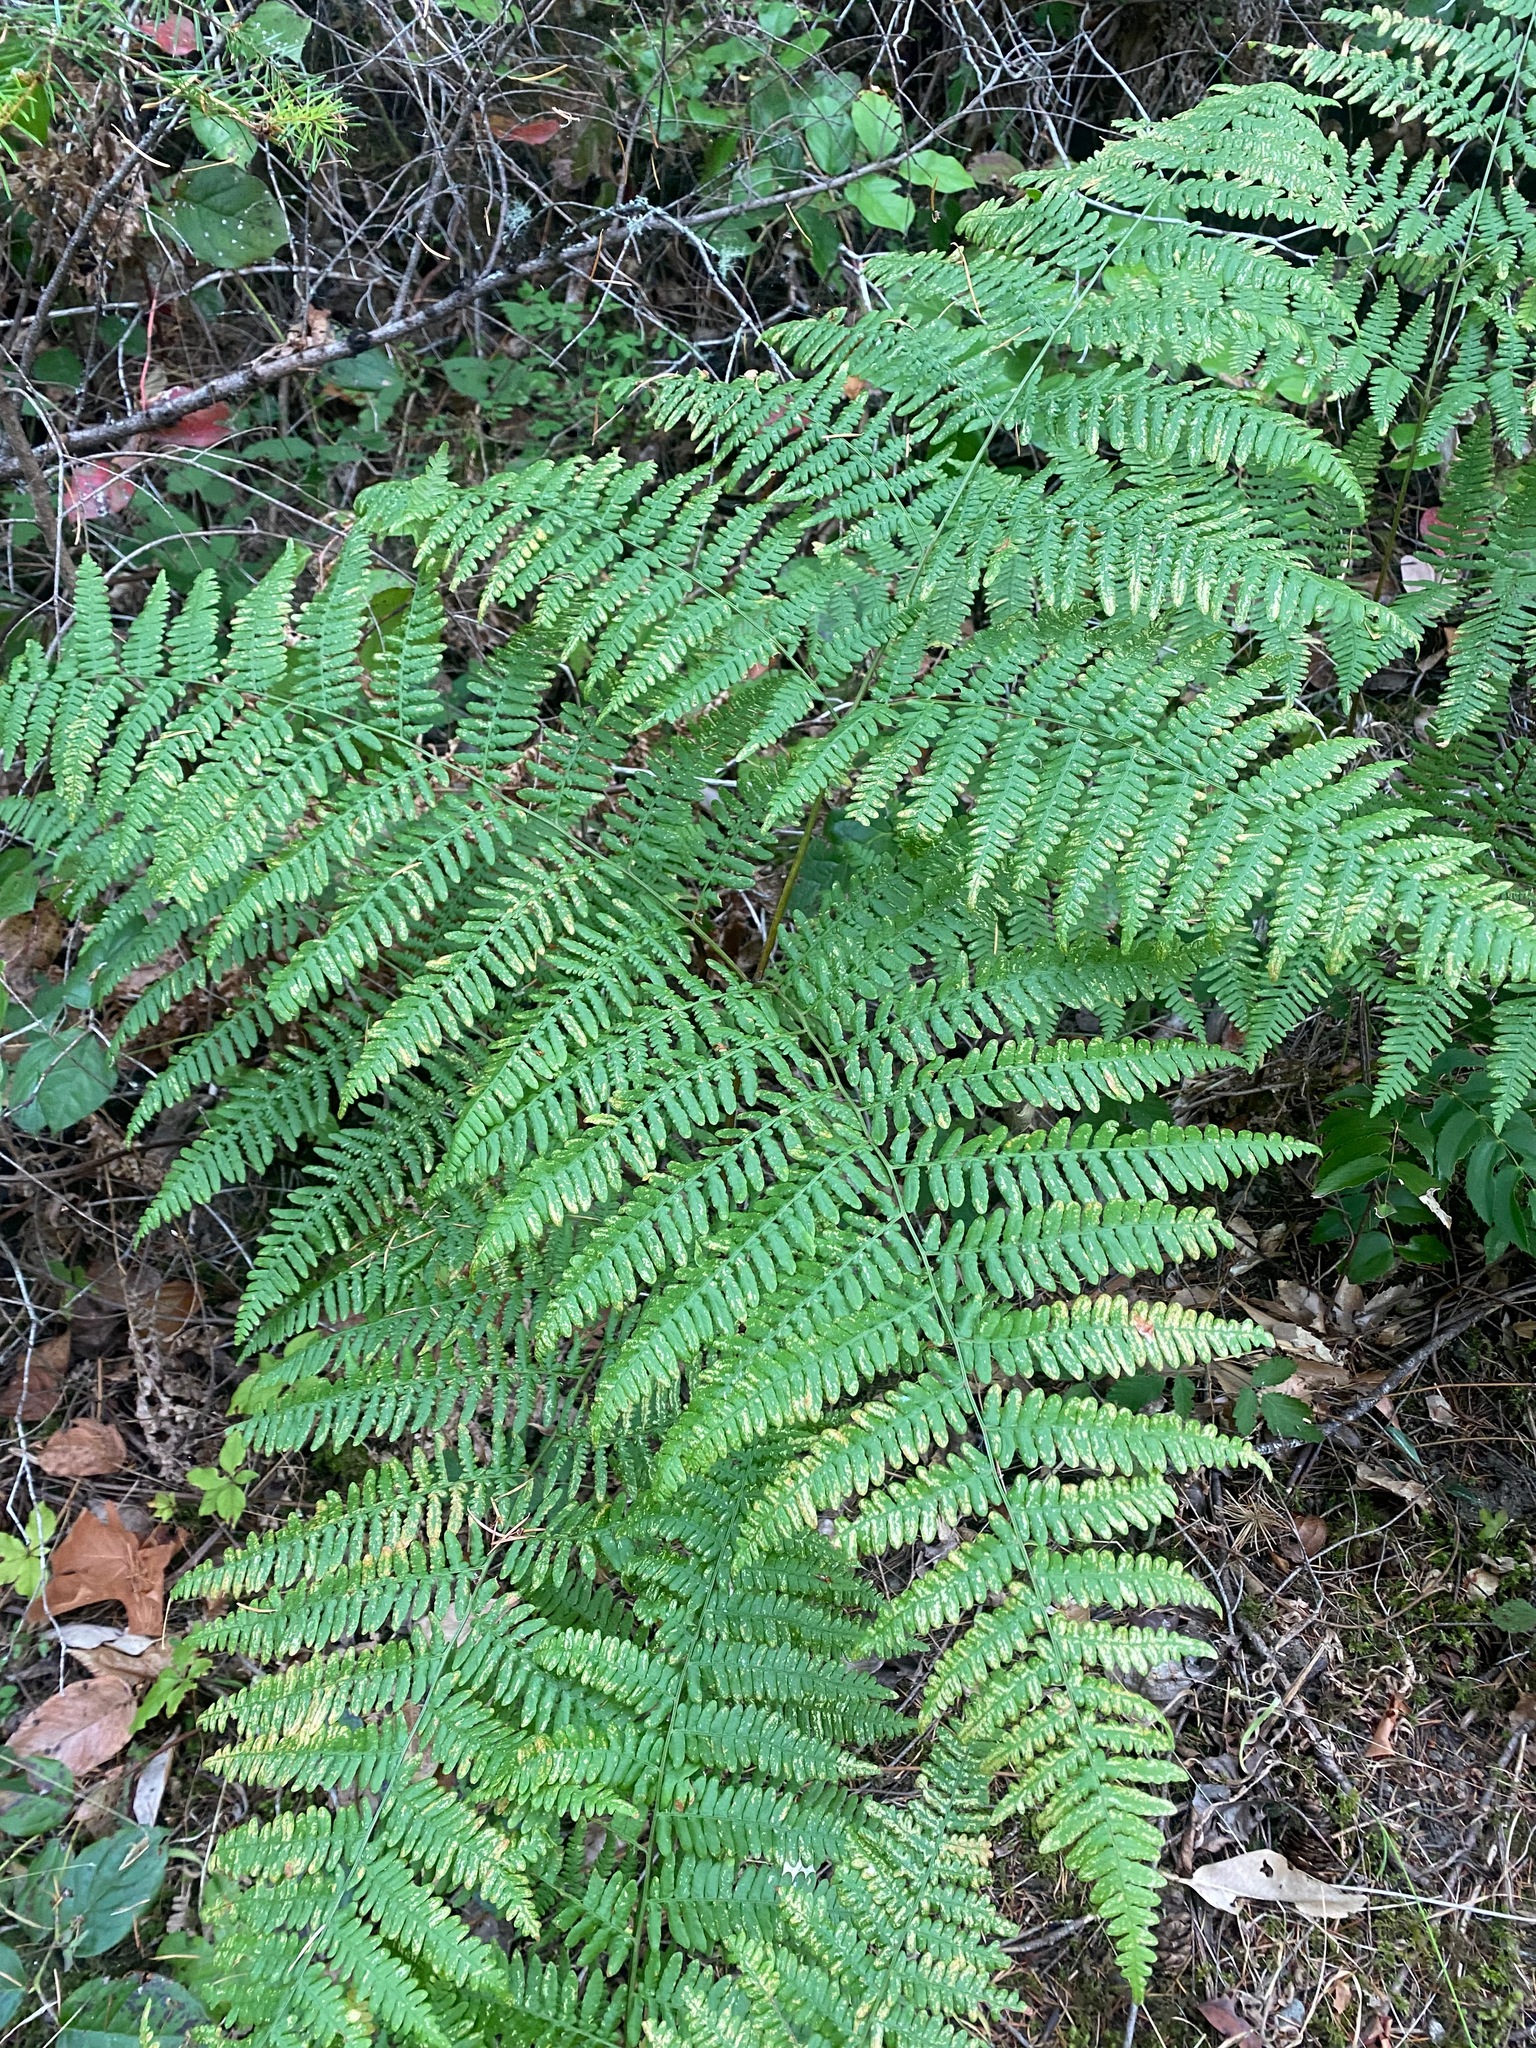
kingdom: Plantae
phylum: Tracheophyta
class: Polypodiopsida
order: Polypodiales
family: Dennstaedtiaceae
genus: Pteridium
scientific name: Pteridium aquilinum
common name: Bracken
